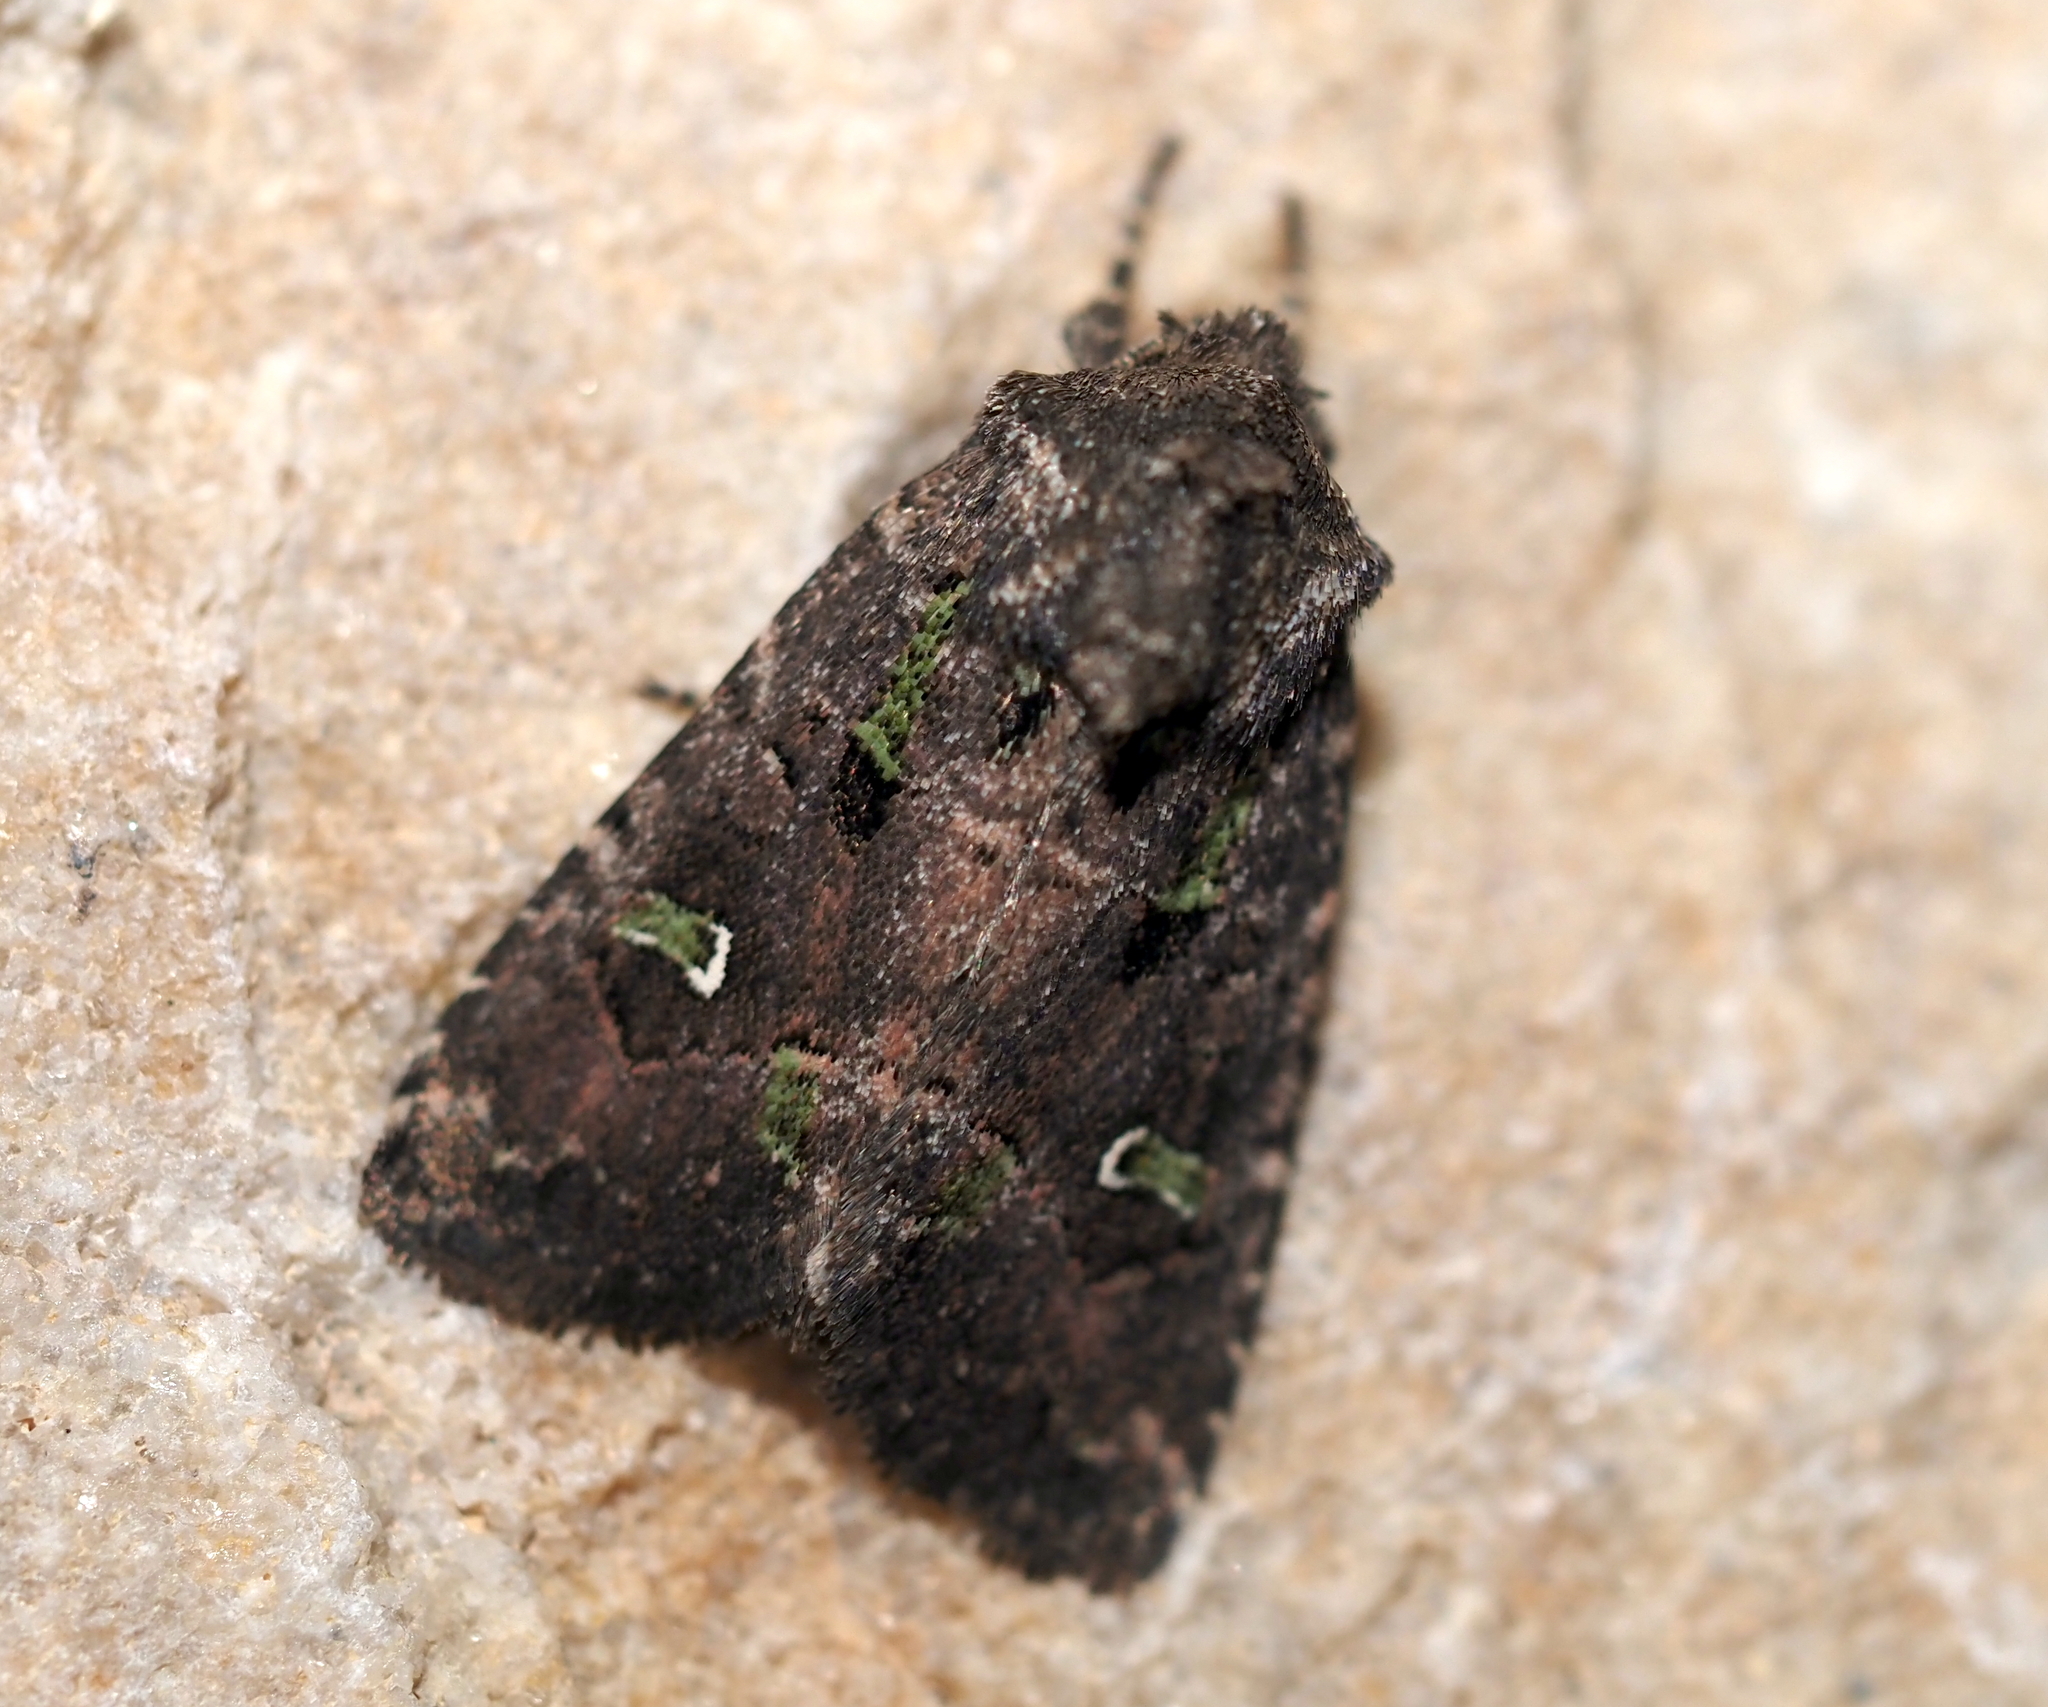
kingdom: Animalia
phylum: Arthropoda
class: Insecta
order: Lepidoptera
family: Noctuidae
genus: Lacinipolia
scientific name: Lacinipolia renigera
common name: Kidney-spotted minor
